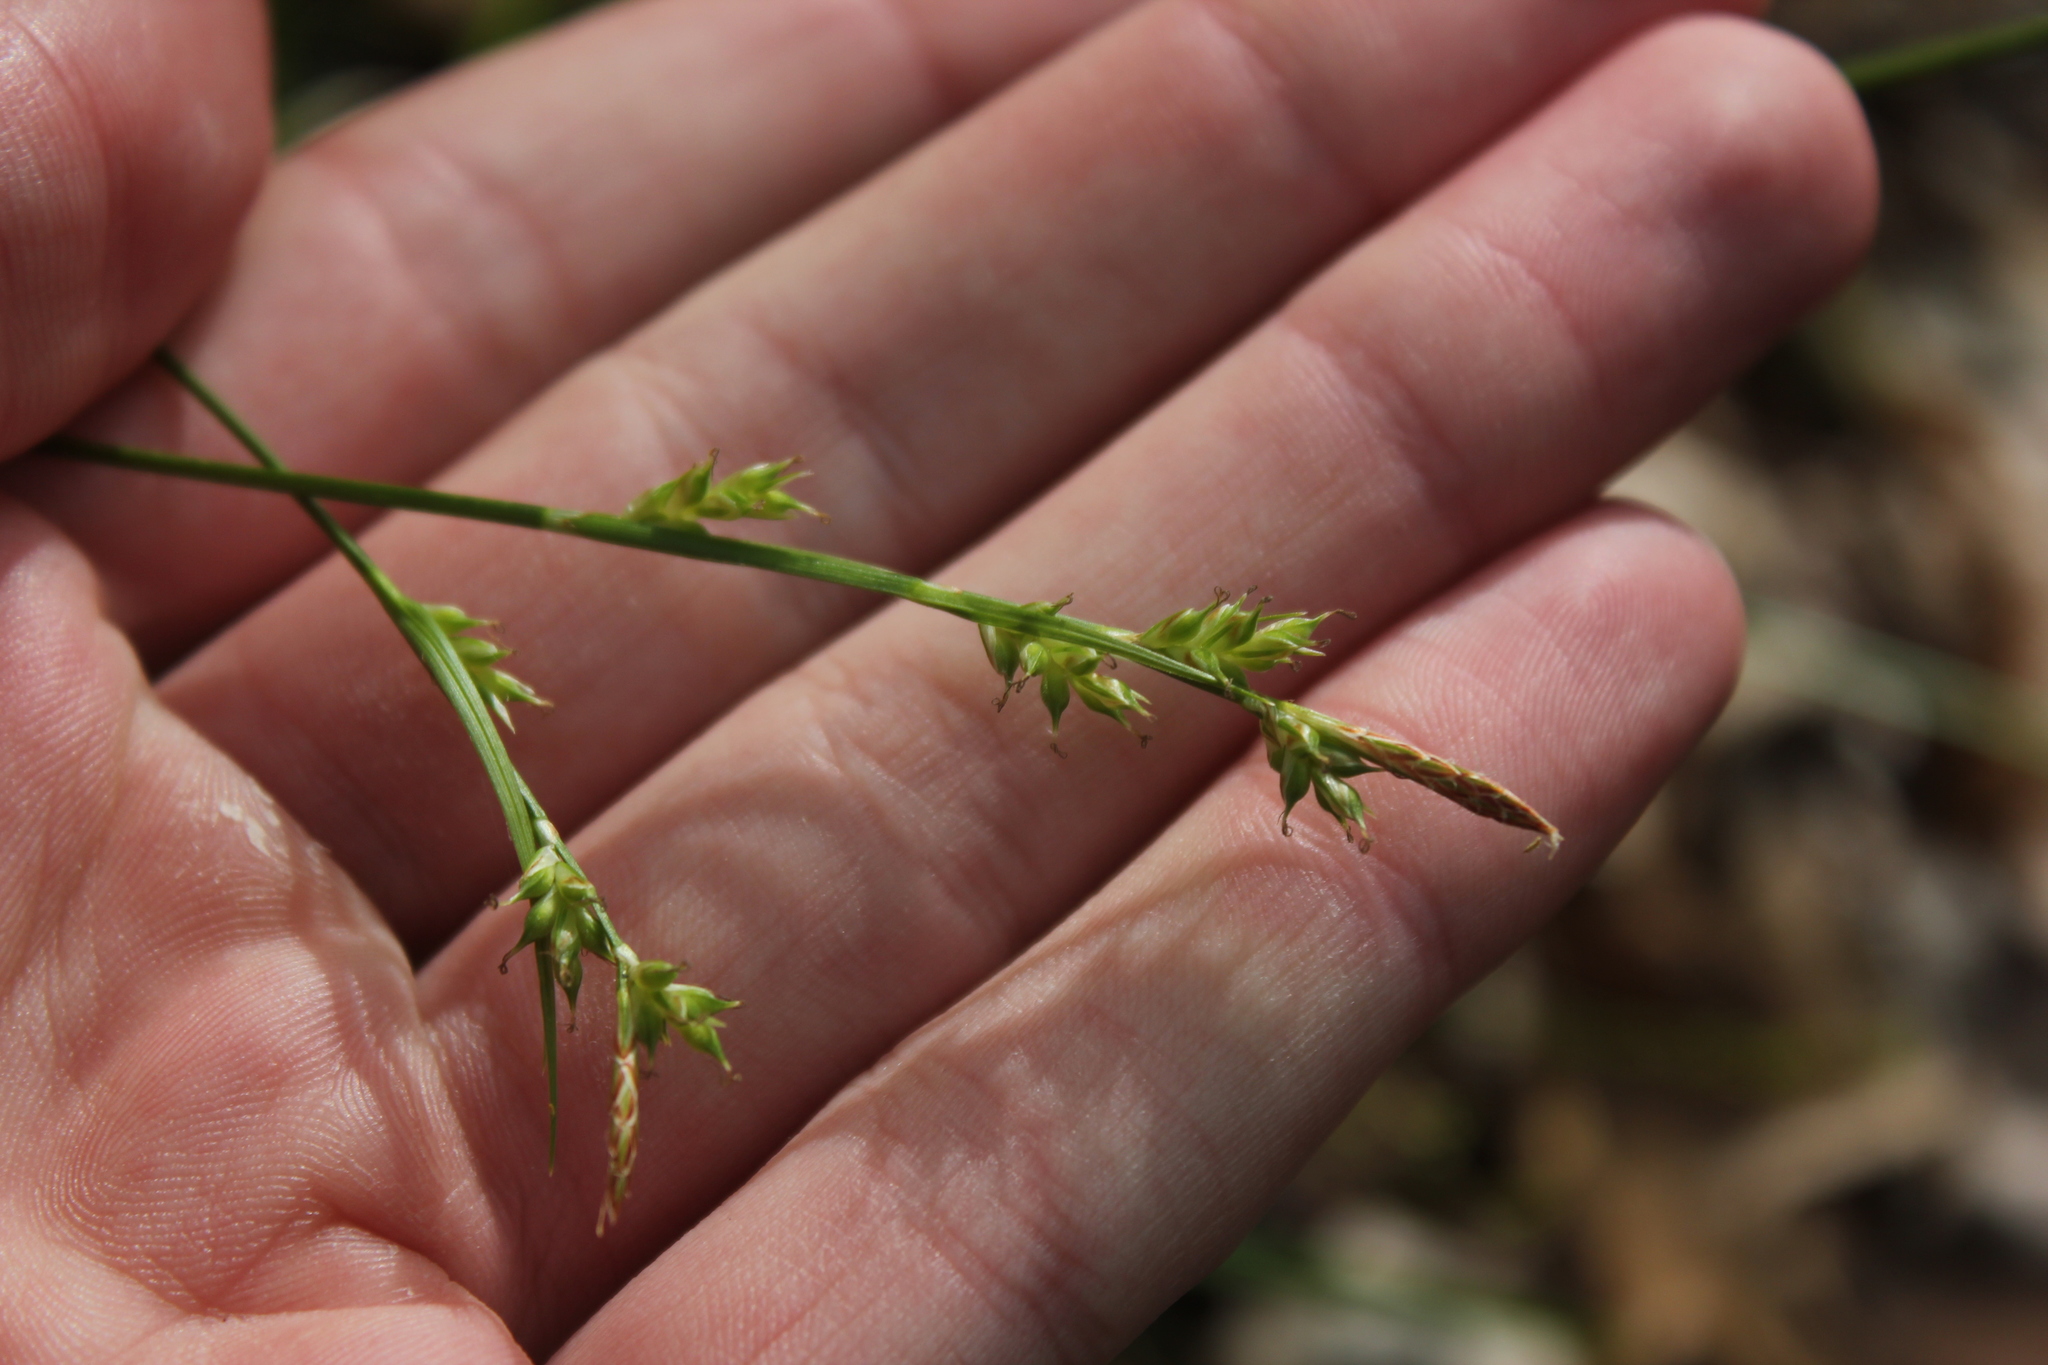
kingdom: Plantae
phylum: Tracheophyta
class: Liliopsida
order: Poales
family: Cyperaceae
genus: Carex
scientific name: Carex communis
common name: Colonial oak sedge
